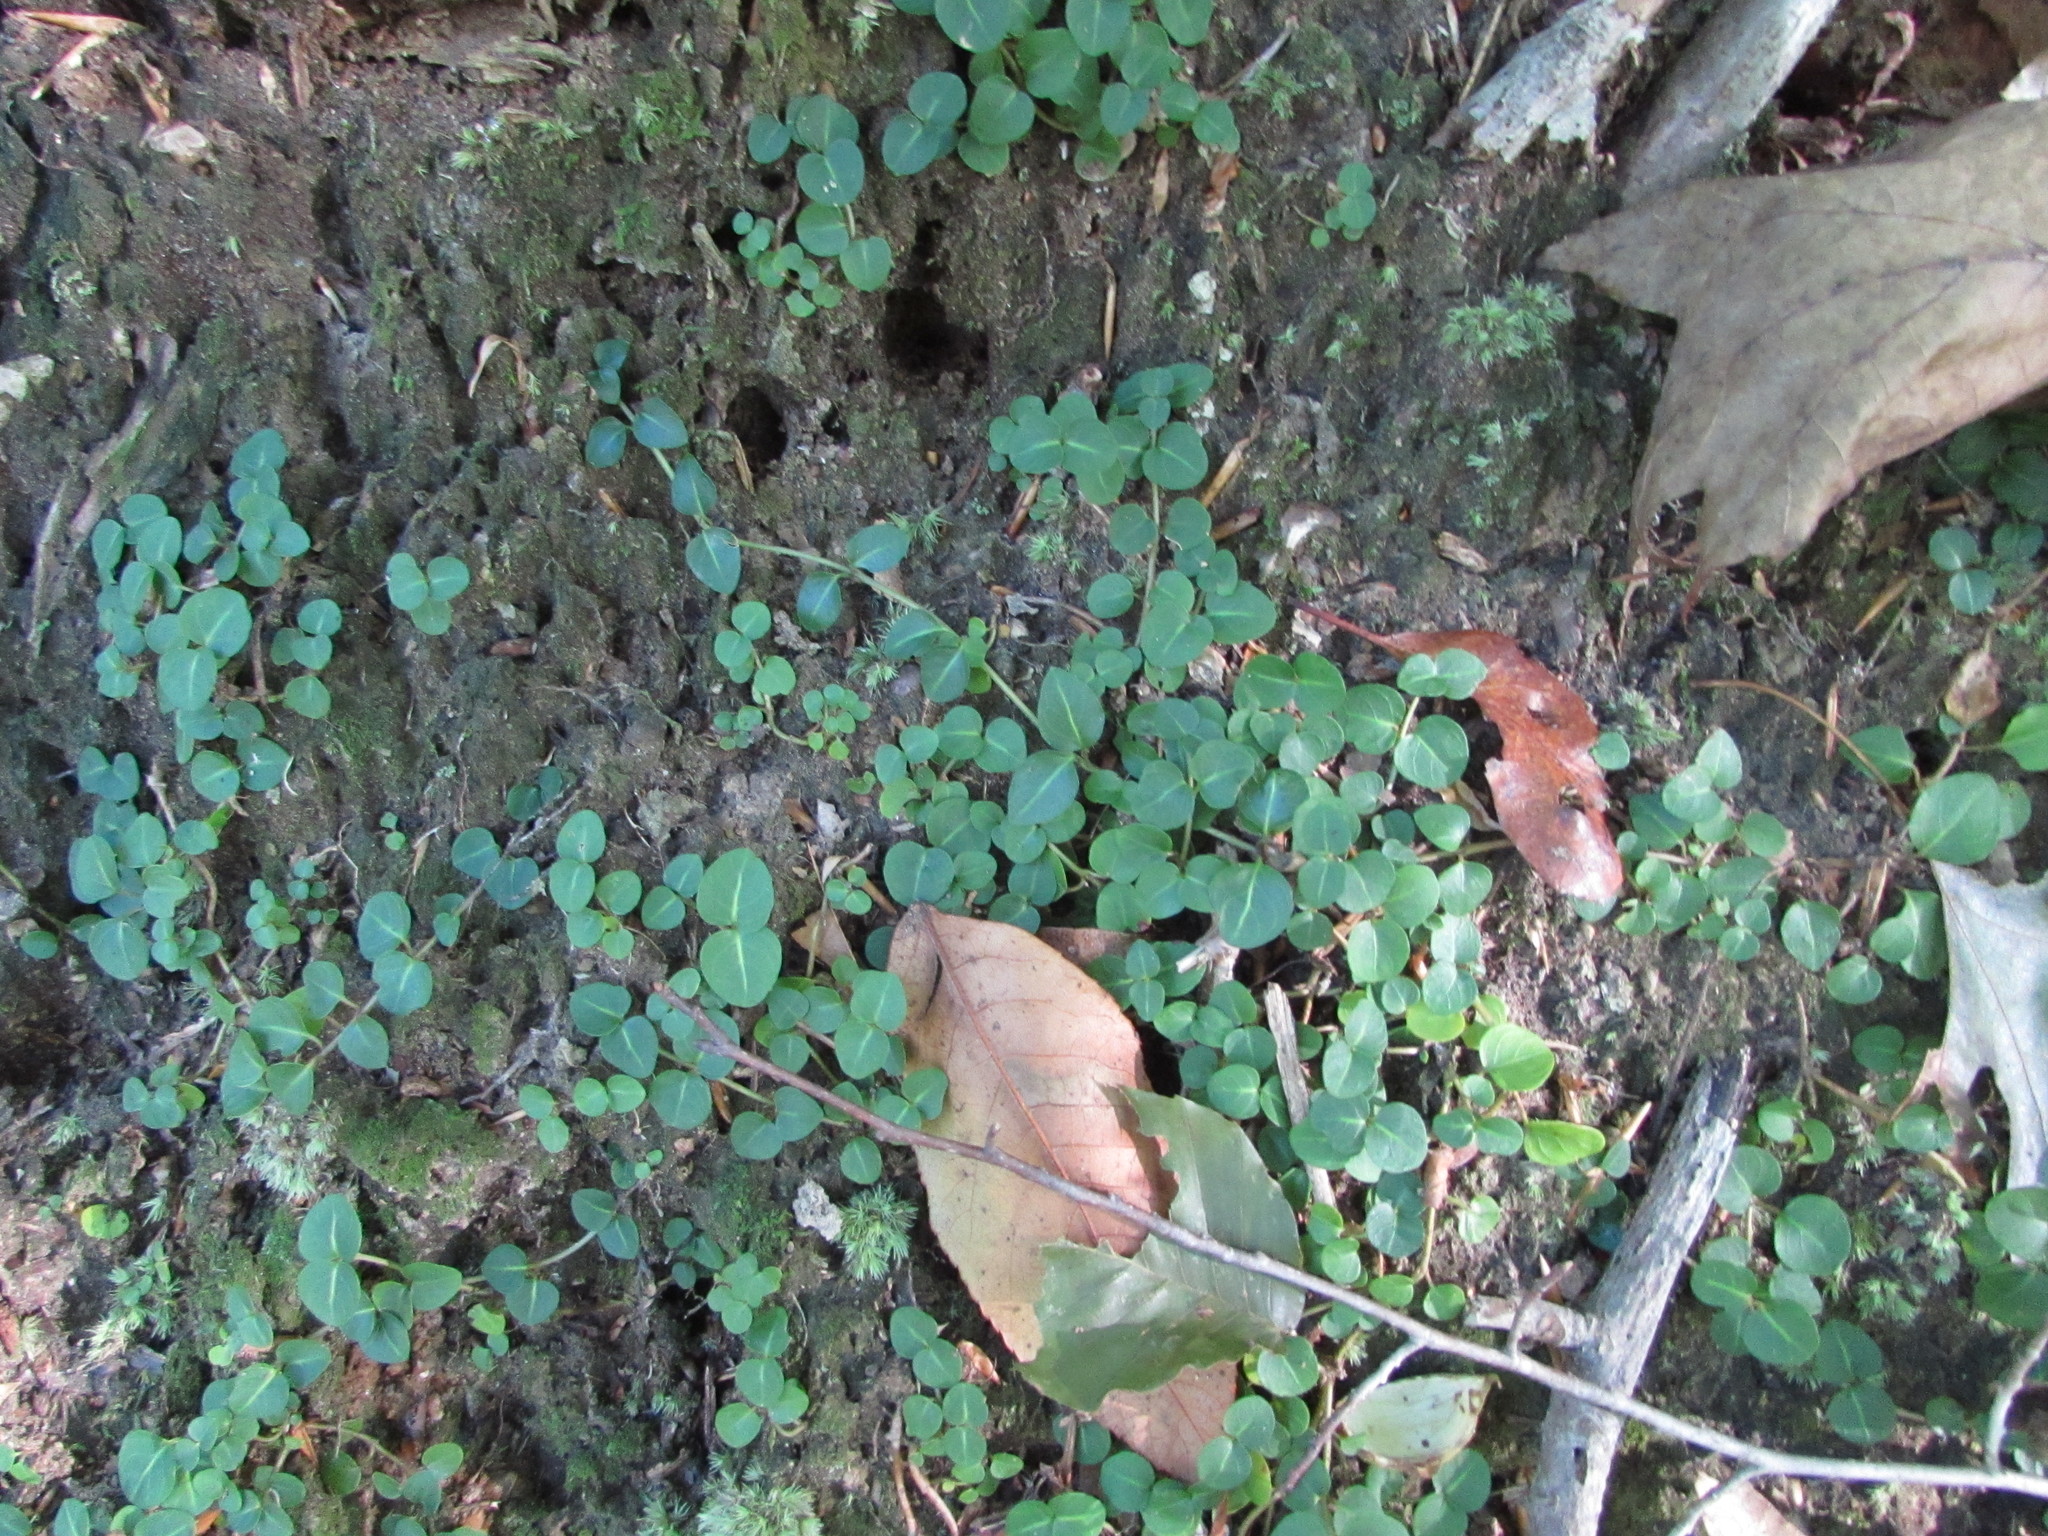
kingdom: Plantae
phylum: Tracheophyta
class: Magnoliopsida
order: Gentianales
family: Rubiaceae
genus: Mitchella
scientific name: Mitchella repens
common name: Partridge-berry
